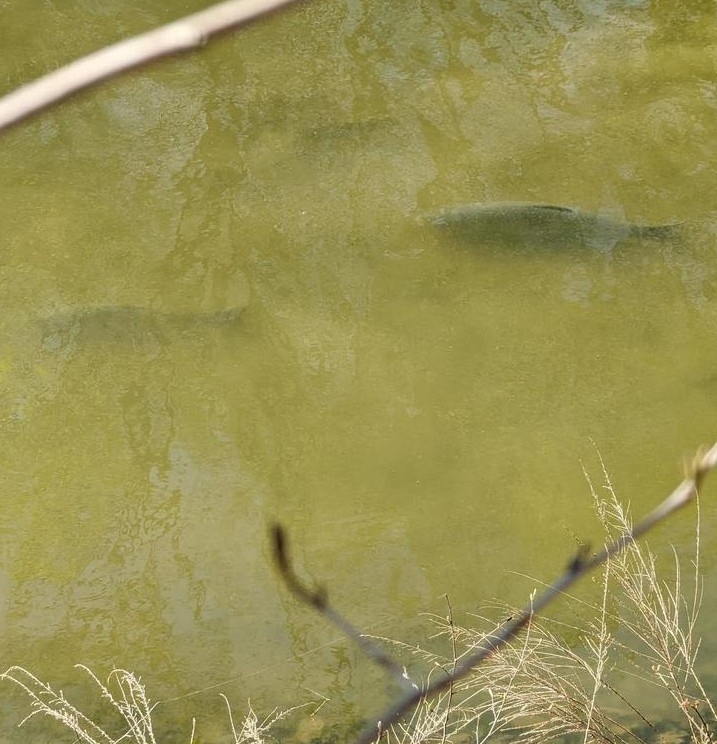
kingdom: Animalia
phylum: Chordata
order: Cypriniformes
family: Cyprinidae
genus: Ctenopharyngodon
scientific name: Ctenopharyngodon idella
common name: Grass carp
